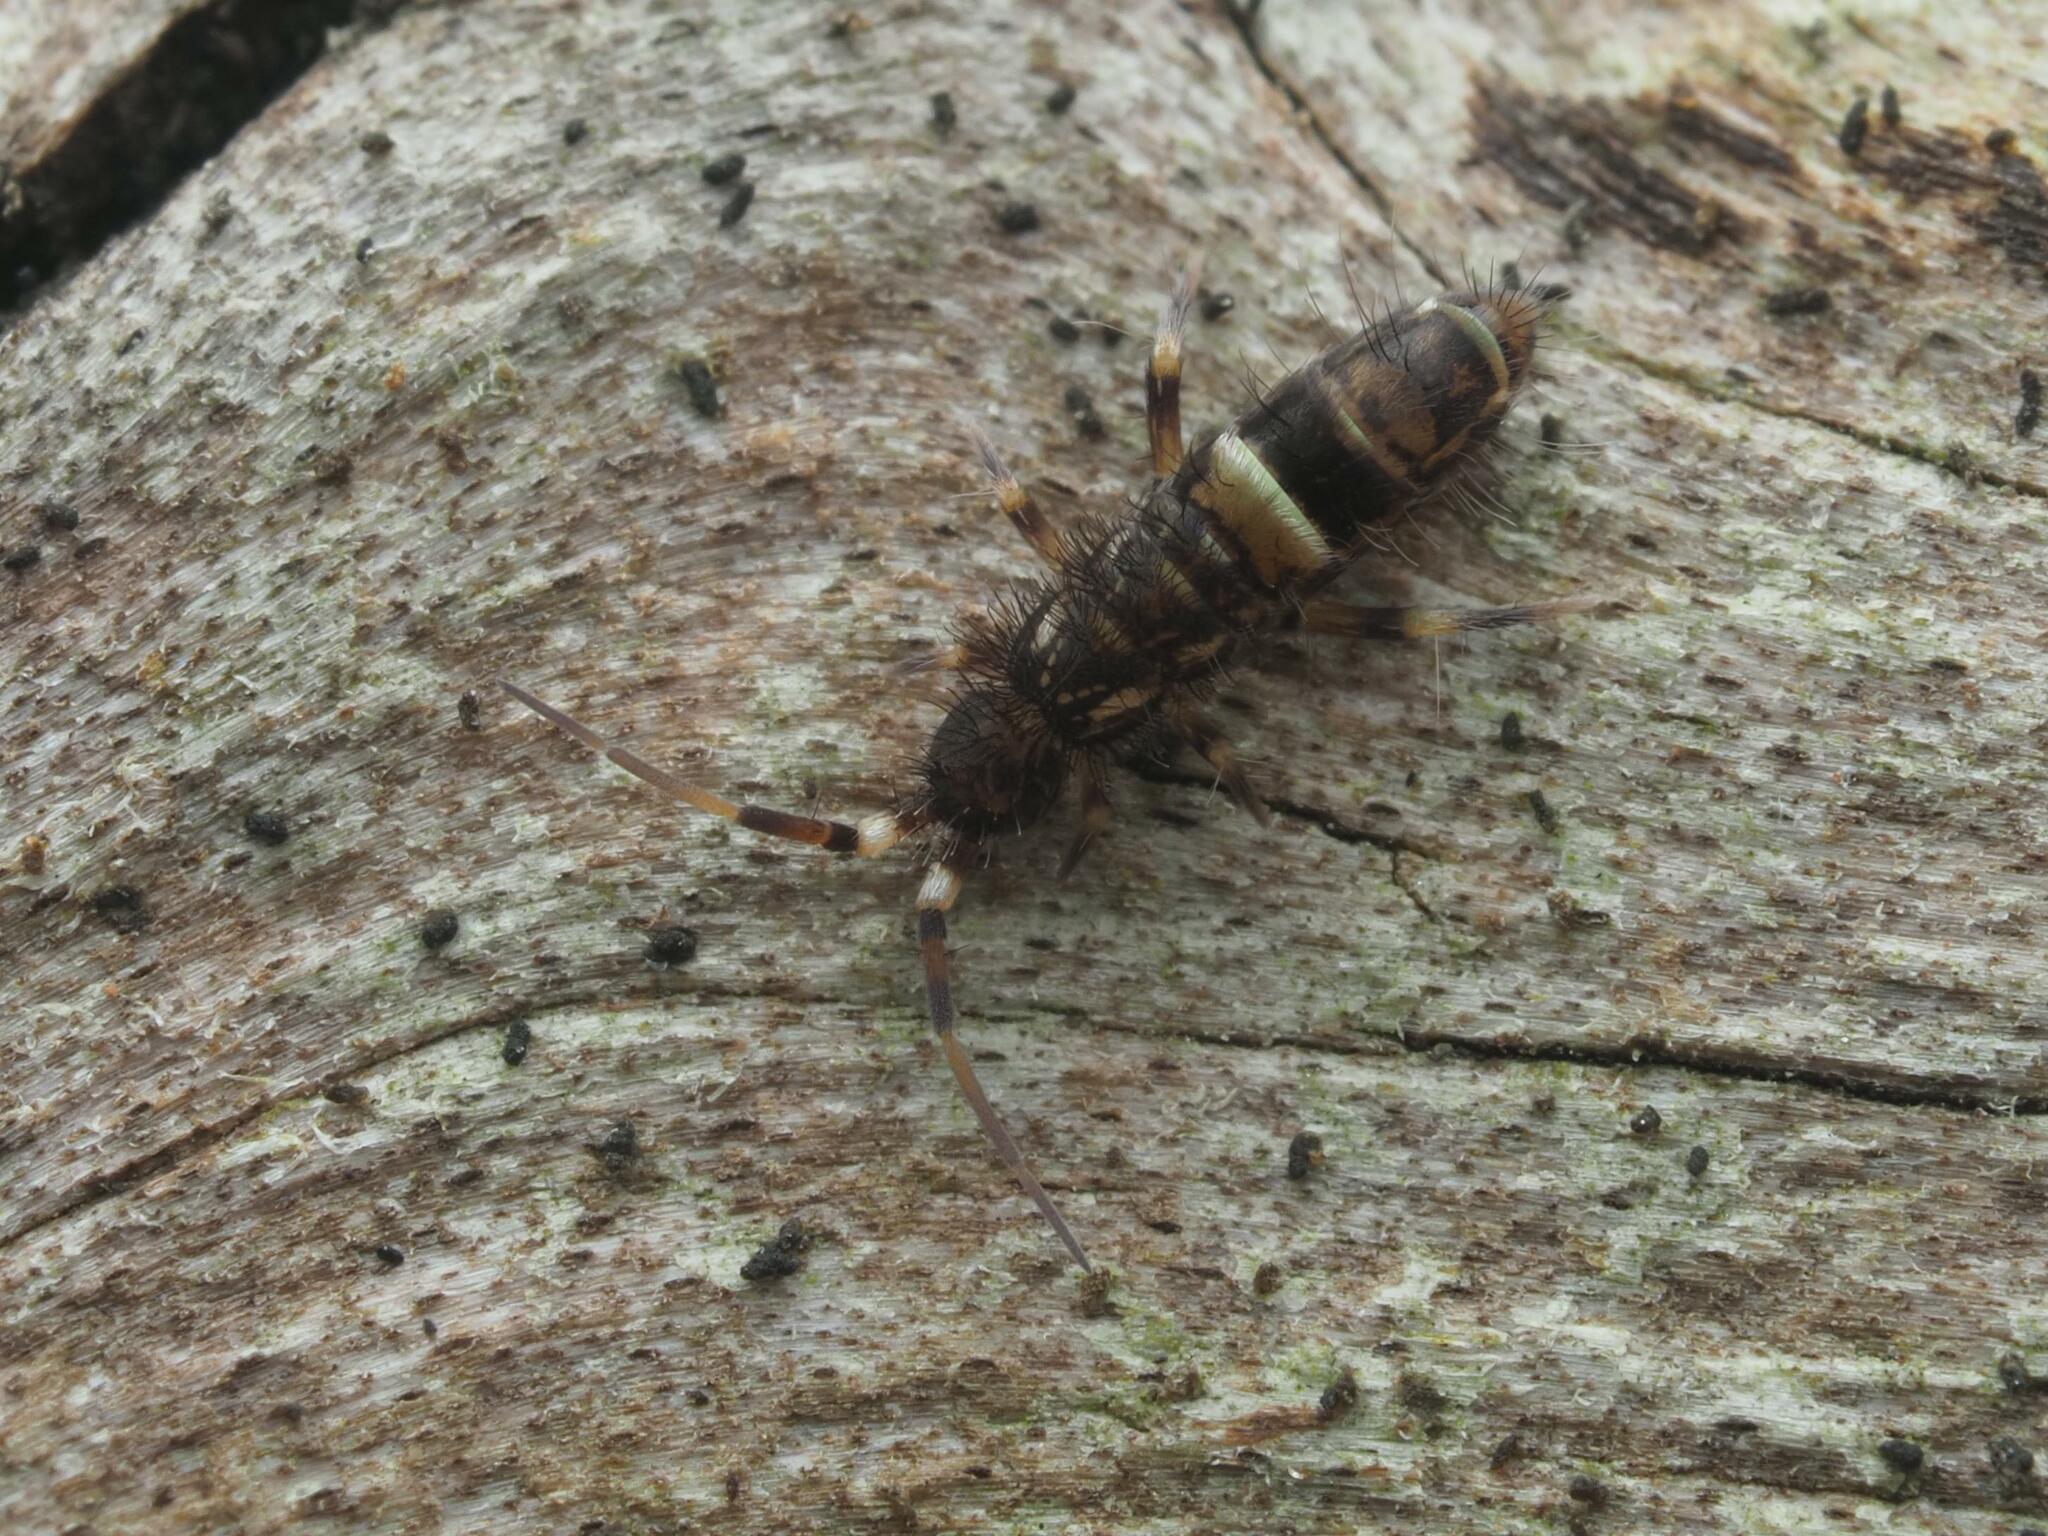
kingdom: Animalia
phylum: Arthropoda
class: Collembola
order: Entomobryomorpha
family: Orchesellidae
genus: Orchesella
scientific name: Orchesella cincta
